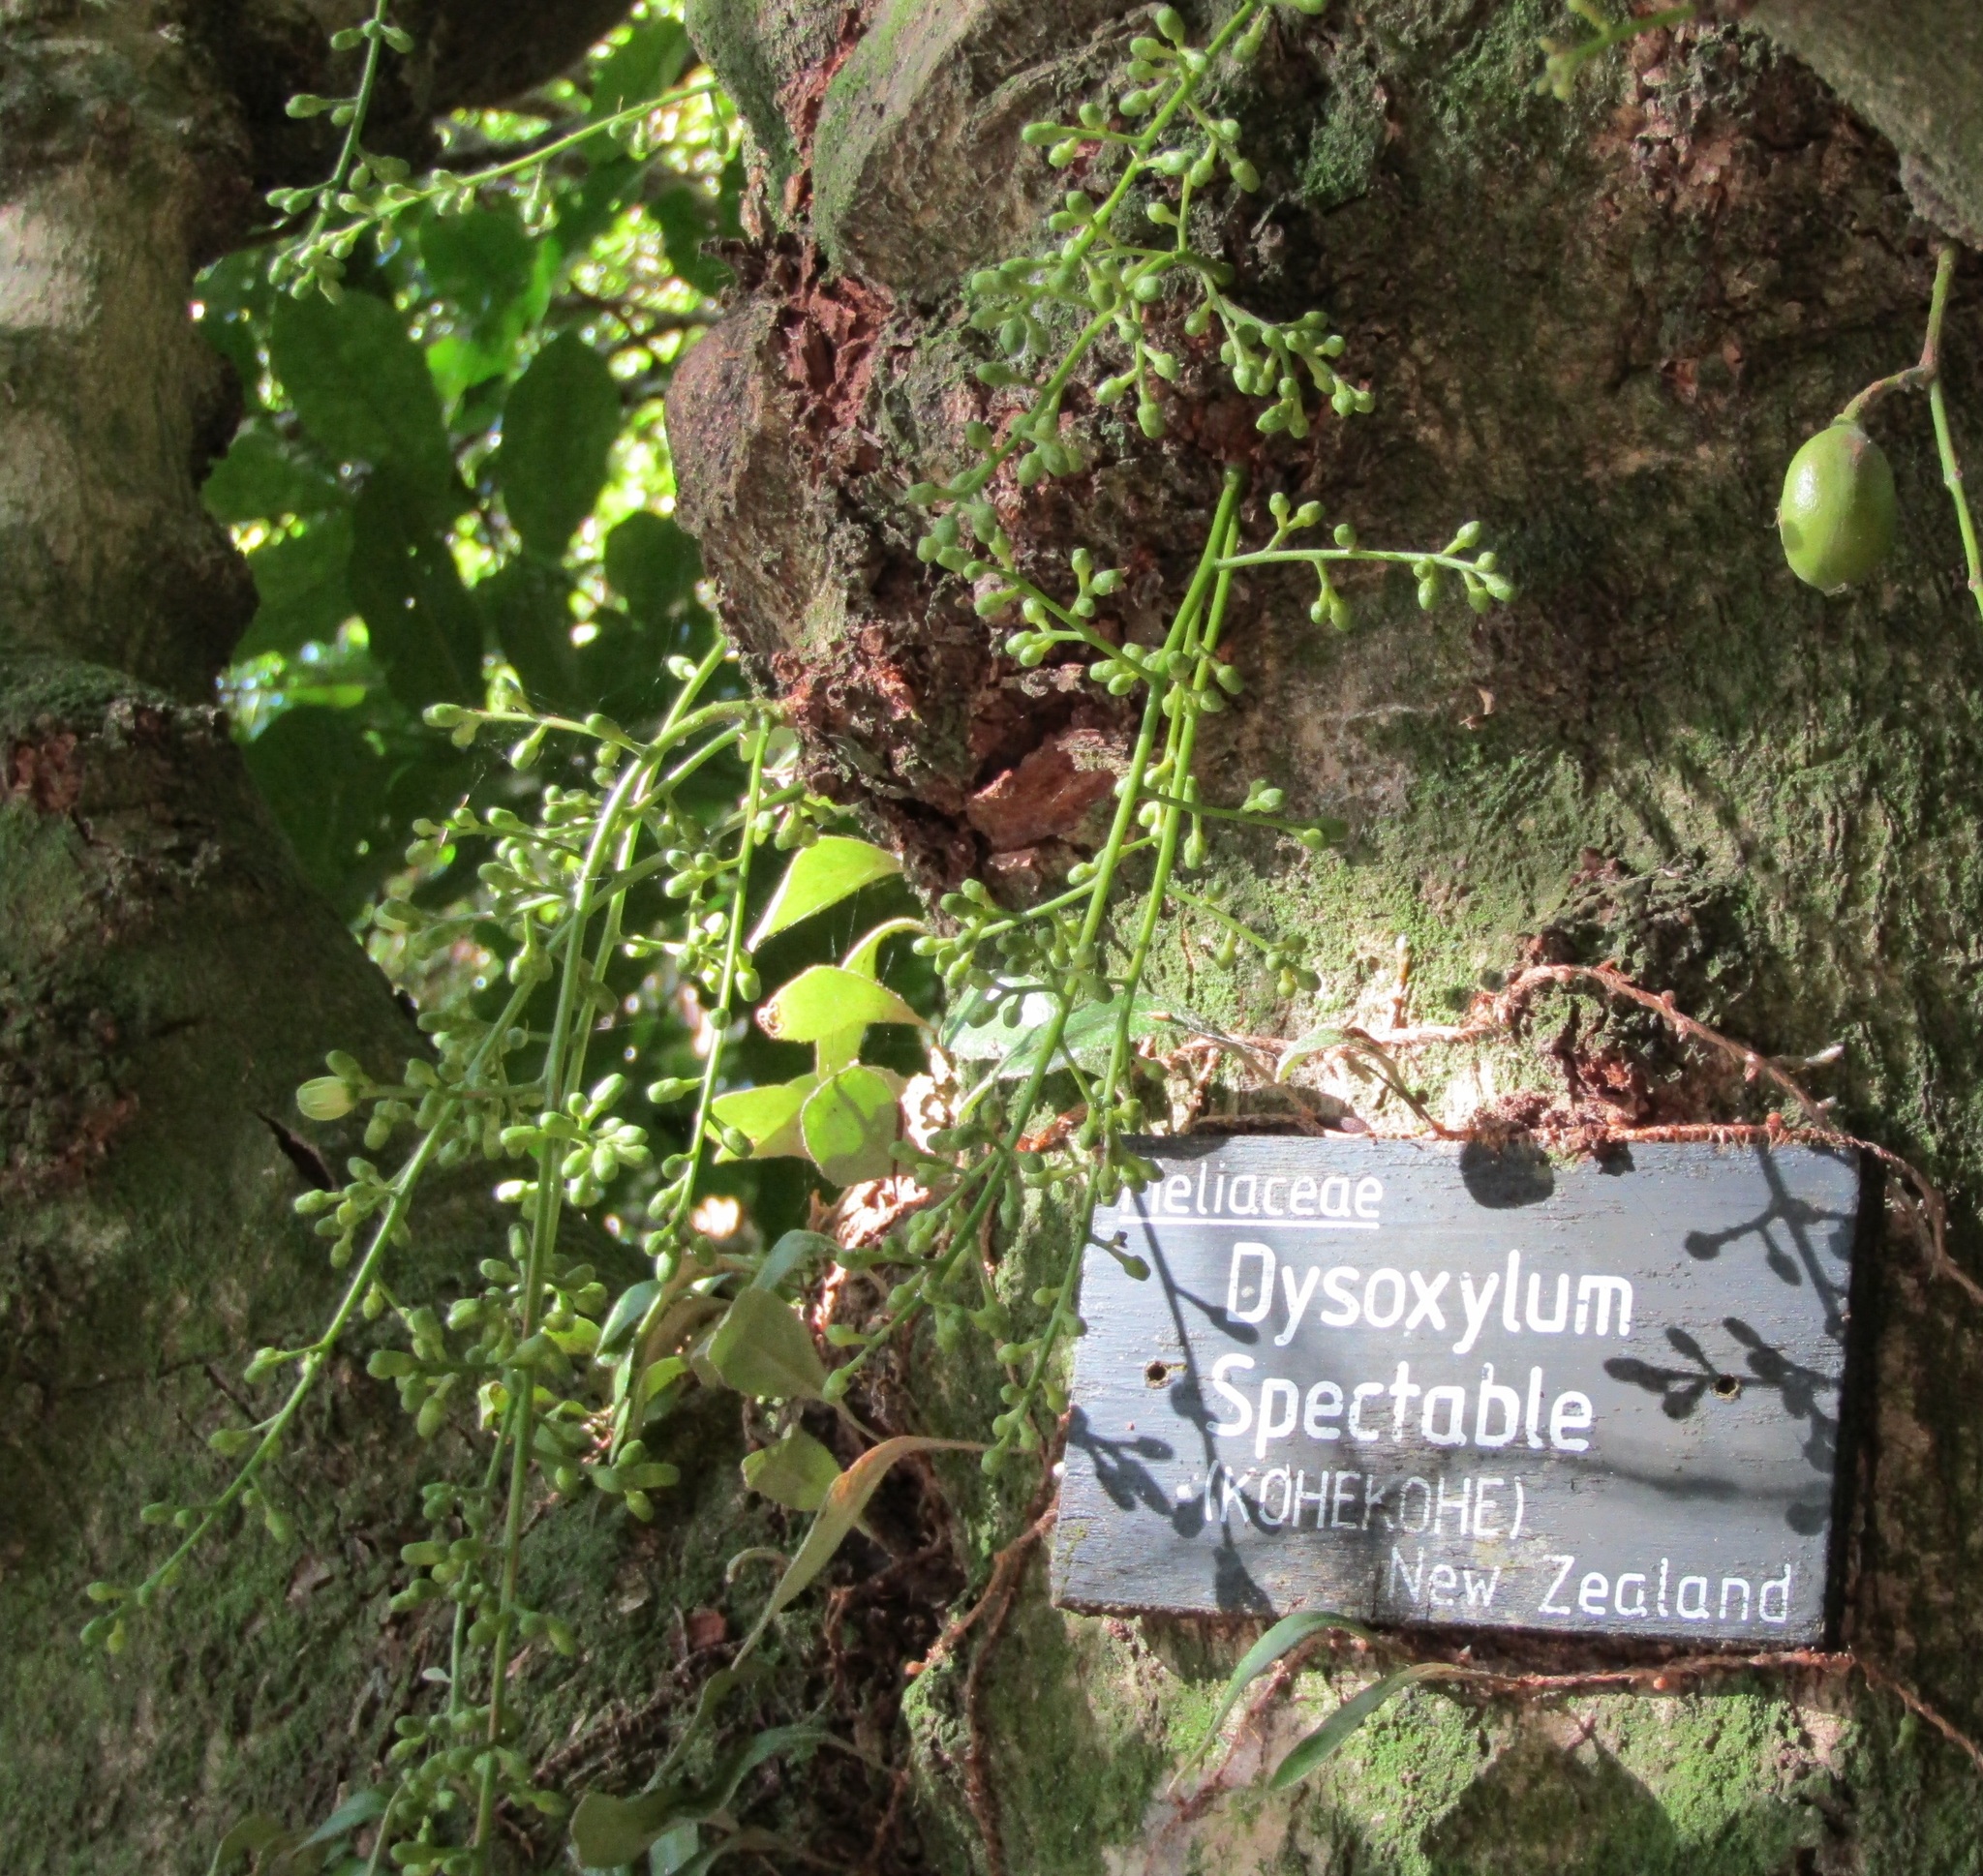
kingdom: Plantae
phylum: Tracheophyta
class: Magnoliopsida
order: Sapindales
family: Meliaceae
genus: Didymocheton
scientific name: Didymocheton spectabilis
